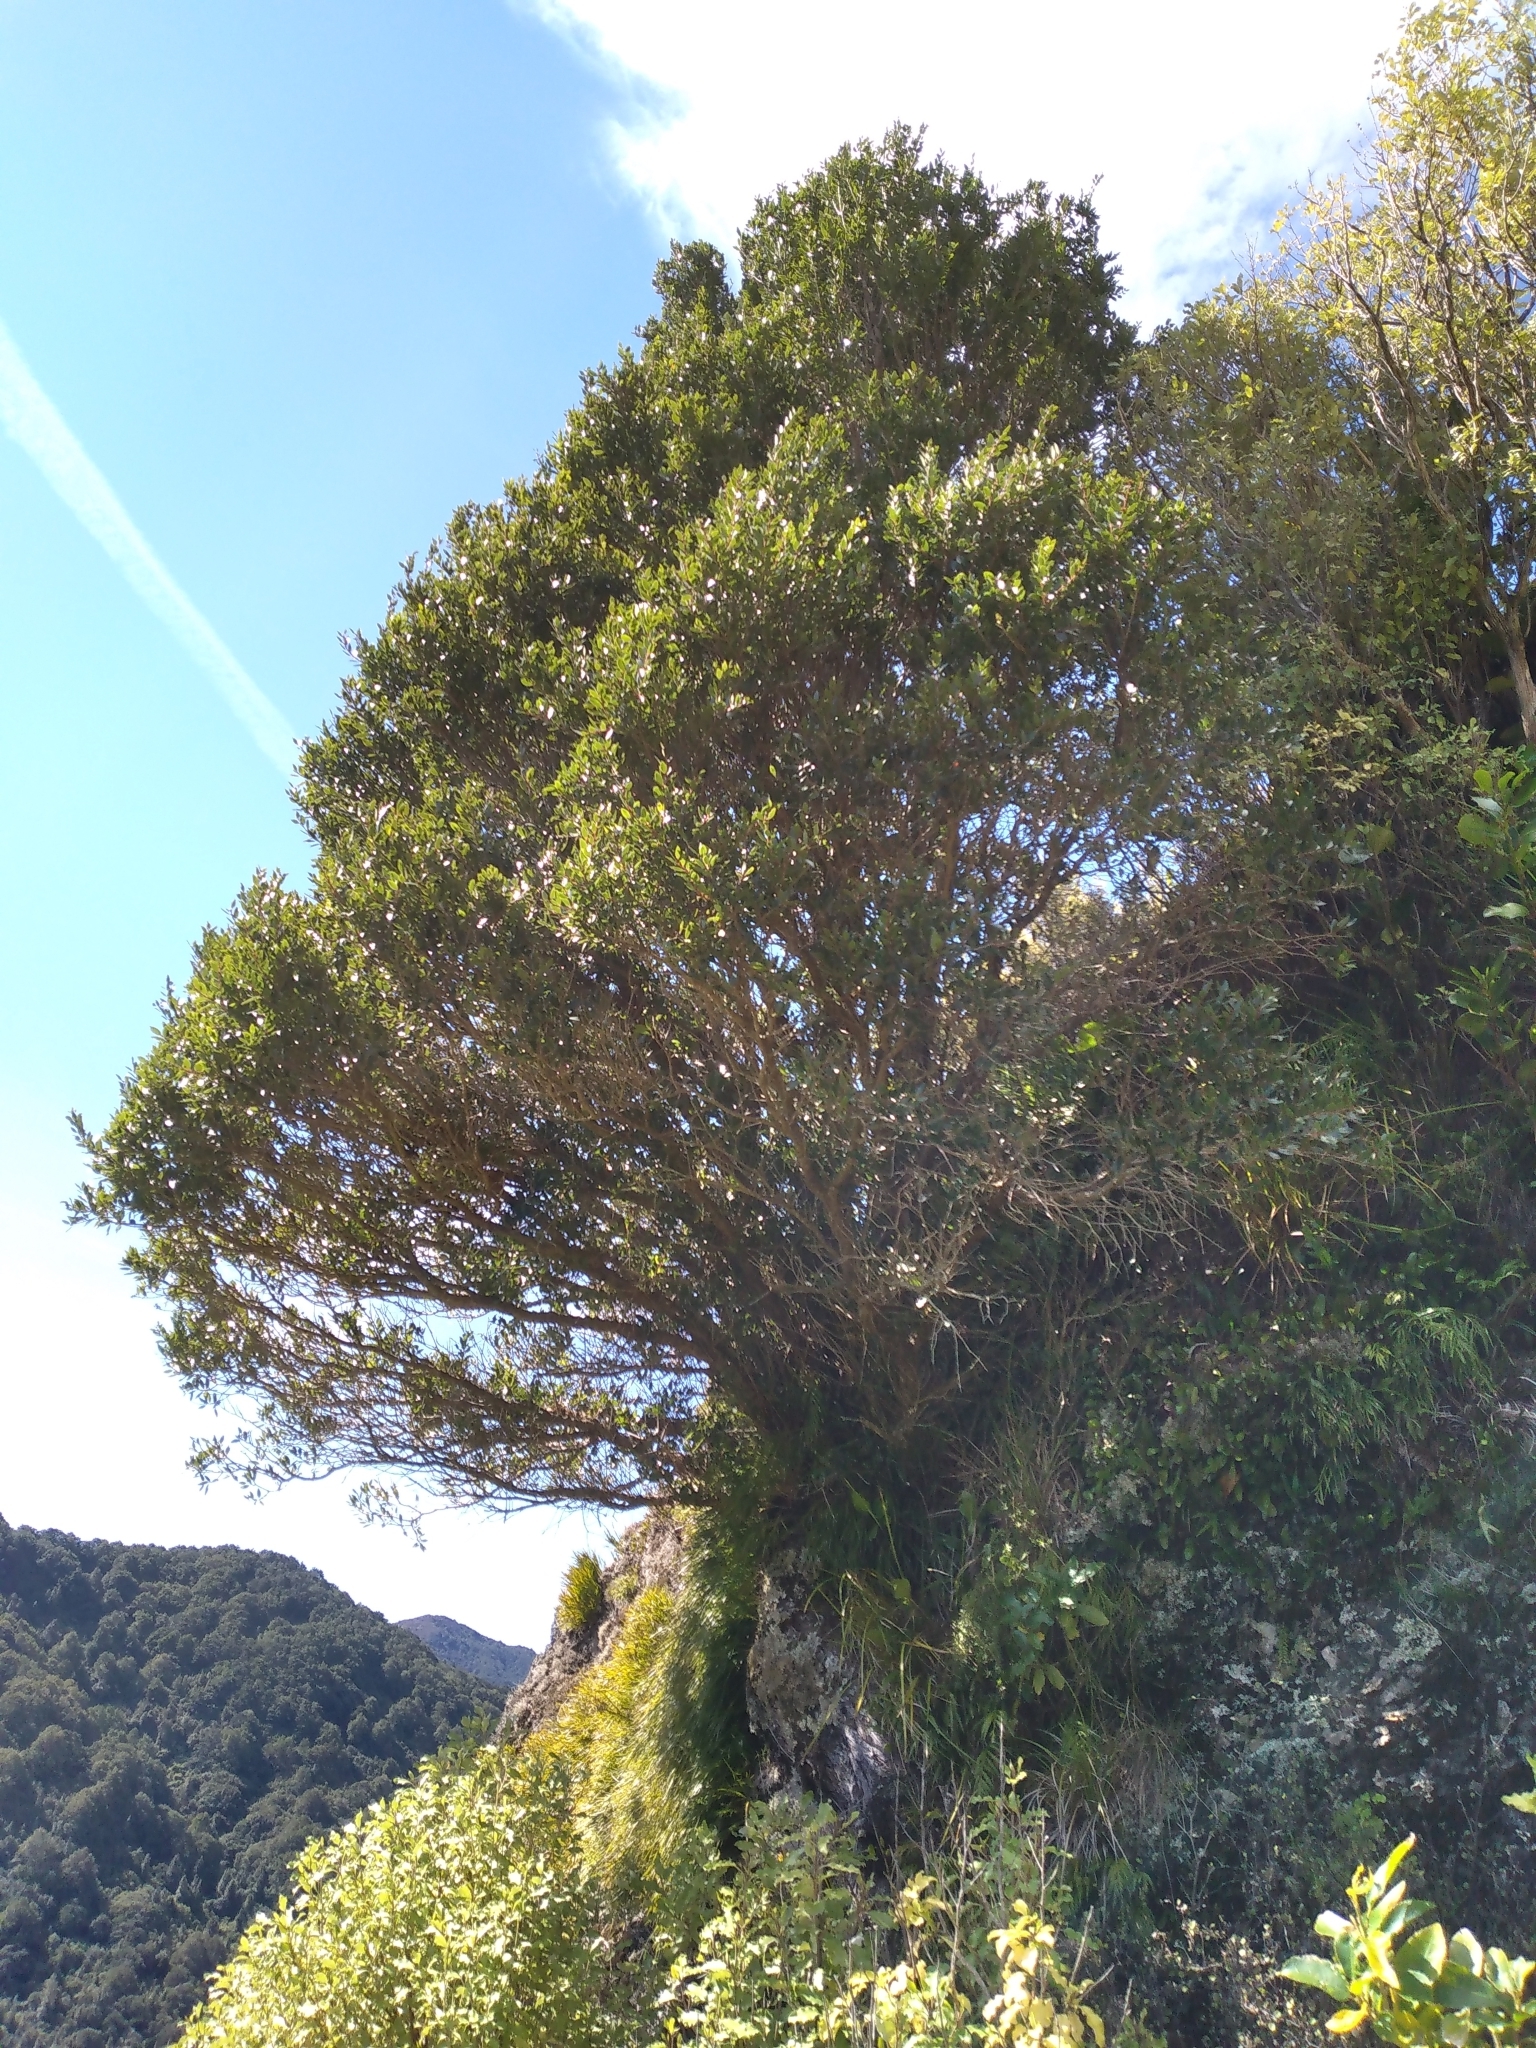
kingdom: Plantae
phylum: Tracheophyta
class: Magnoliopsida
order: Myrtales
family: Myrtaceae
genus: Metrosideros
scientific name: Metrosideros robusta
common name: Northern rata
